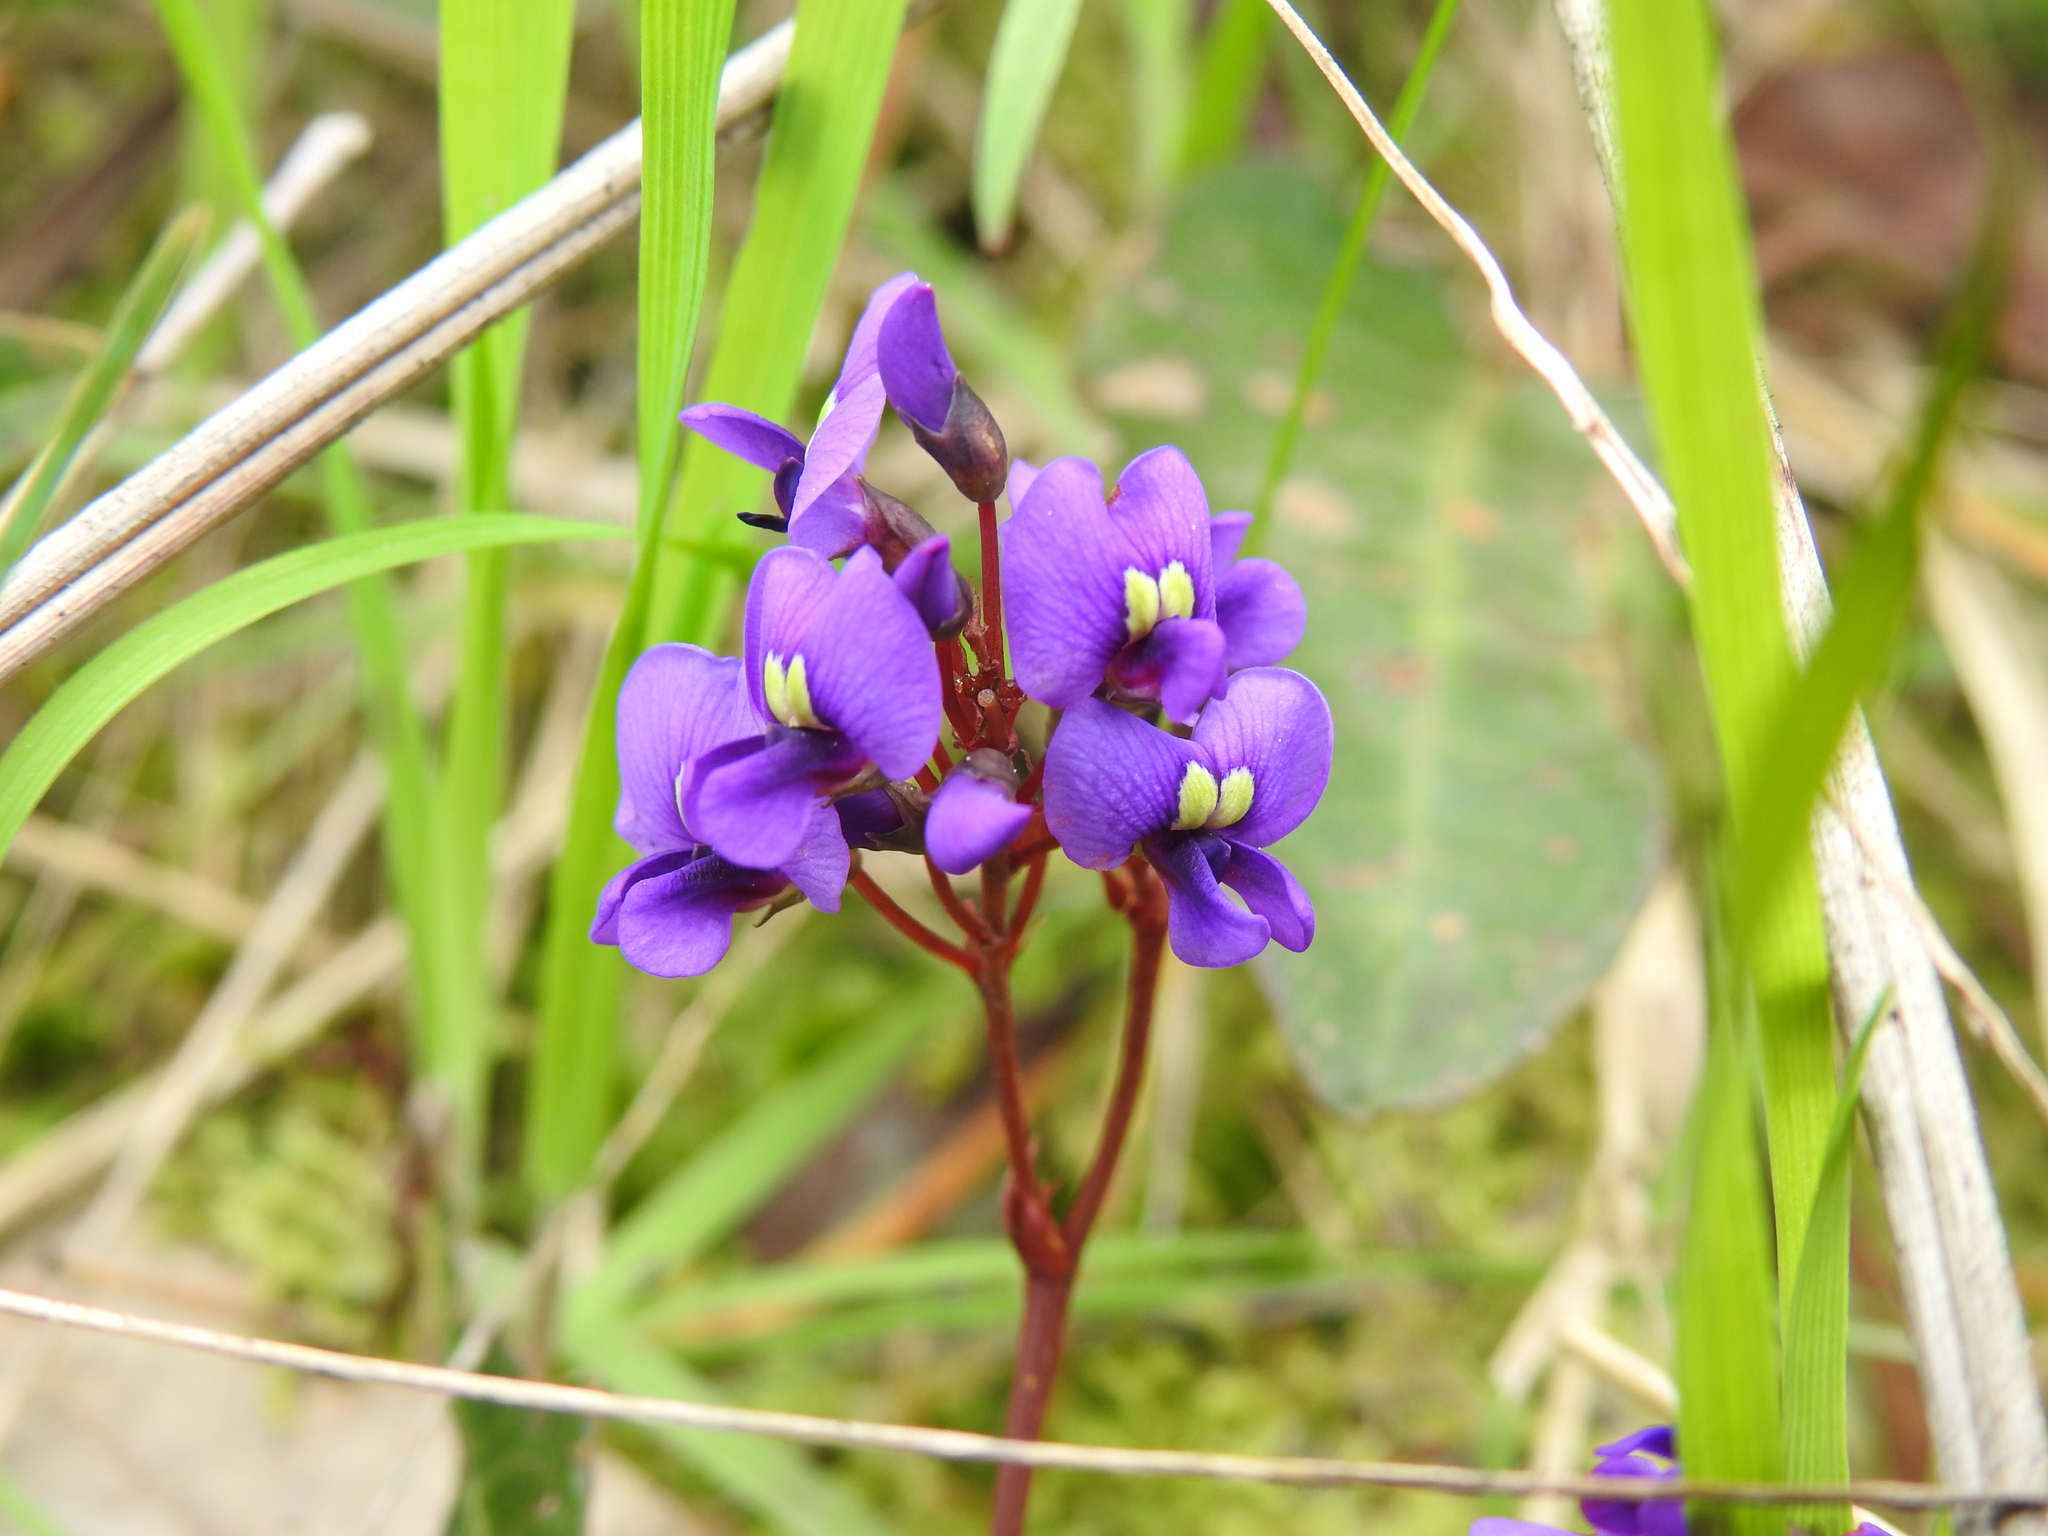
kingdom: Plantae
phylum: Tracheophyta
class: Magnoliopsida
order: Fabales
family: Fabaceae
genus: Hardenbergia
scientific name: Hardenbergia violacea
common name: Coral-pea
